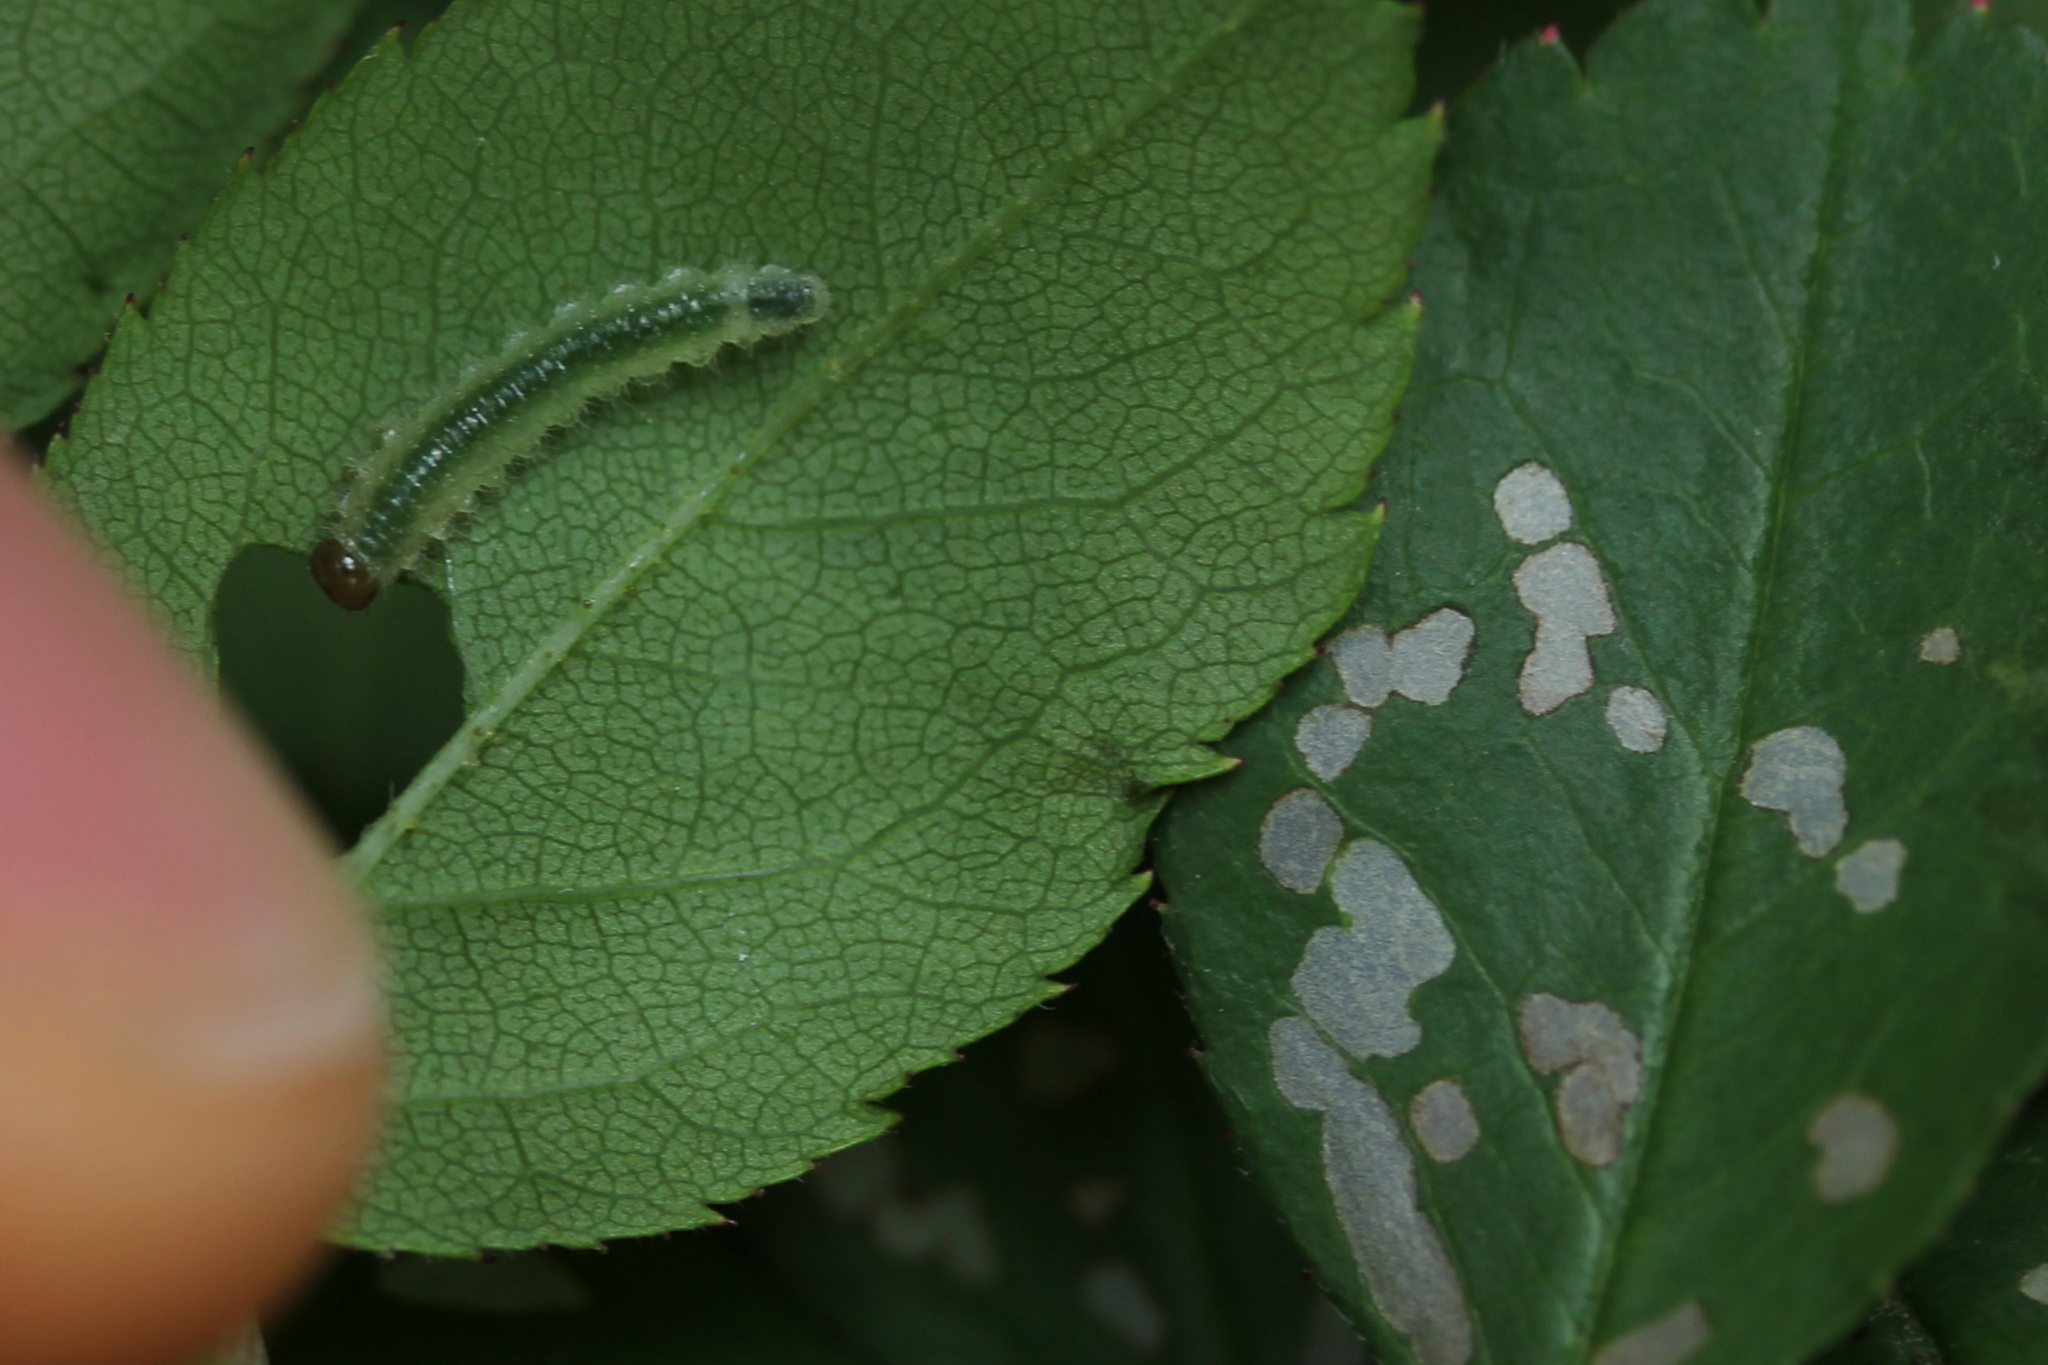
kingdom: Animalia
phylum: Arthropoda
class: Insecta
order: Hymenoptera
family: Tenthredinidae
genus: Cladius
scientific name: Cladius pectinicornis
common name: Sawfly
